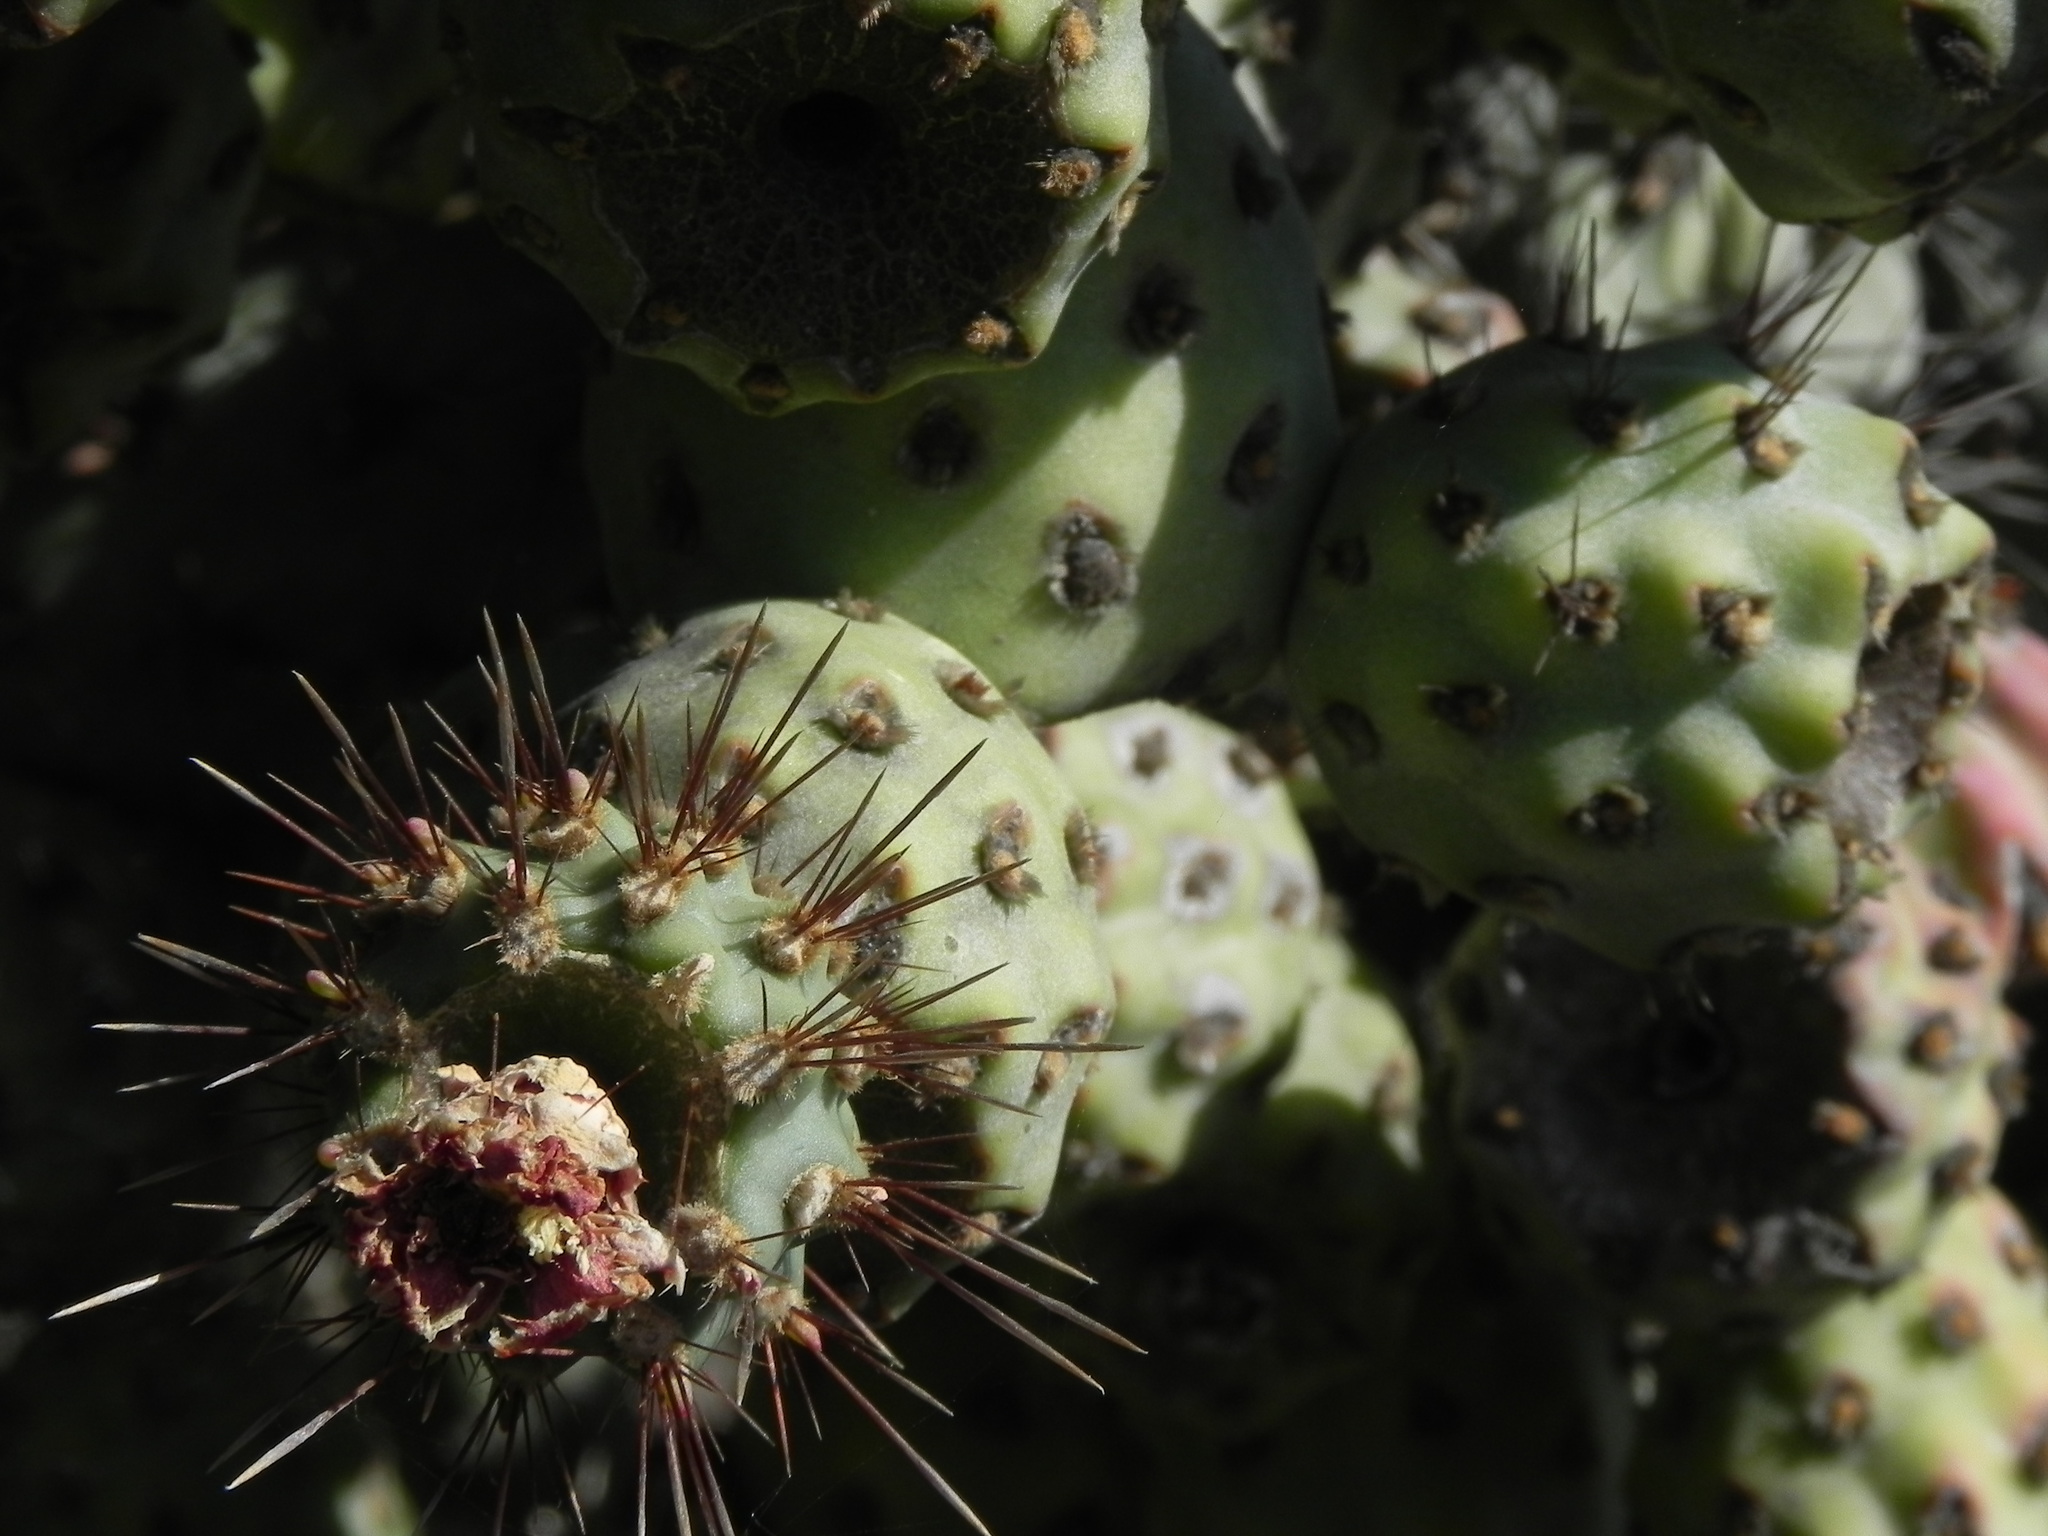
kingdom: Plantae
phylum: Tracheophyta
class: Magnoliopsida
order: Caryophyllales
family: Cactaceae
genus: Cylindropuntia
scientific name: Cylindropuntia prolifera
